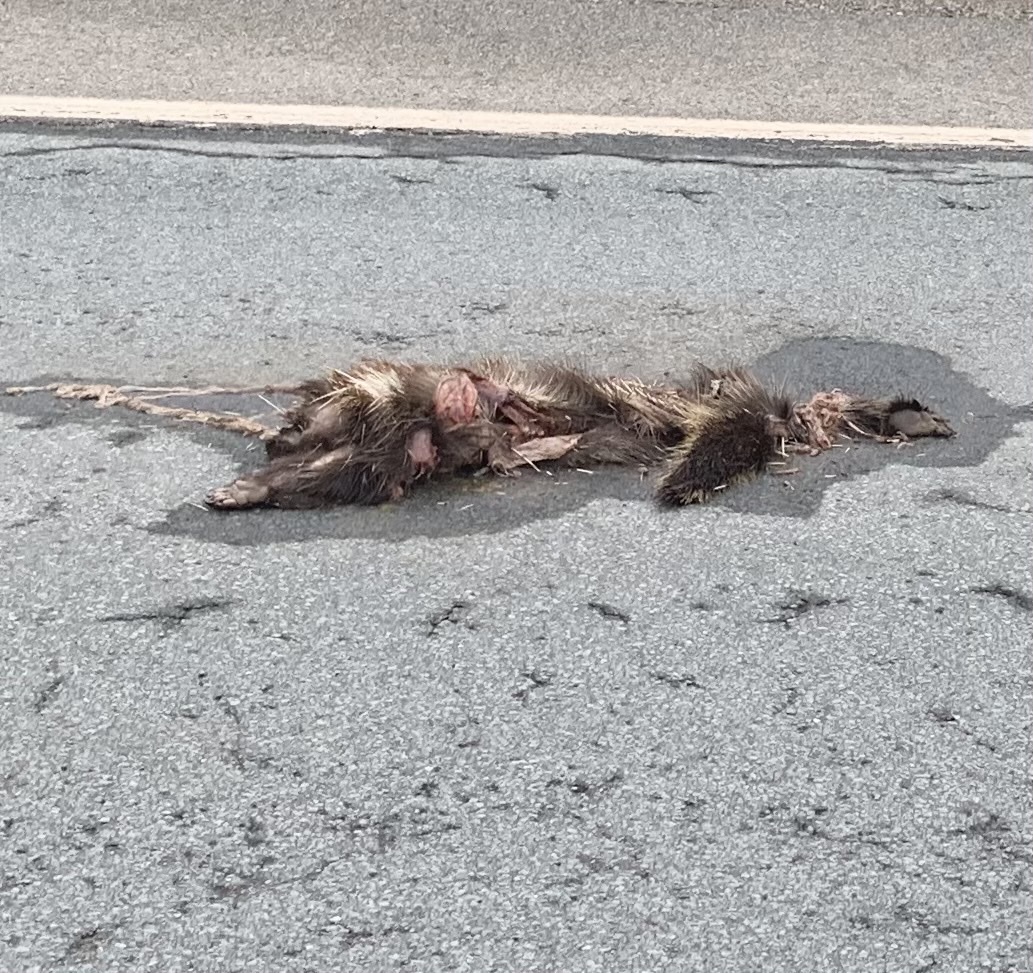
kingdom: Animalia
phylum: Chordata
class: Mammalia
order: Rodentia
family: Erethizontidae
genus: Erethizon
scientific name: Erethizon dorsatus
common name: North american porcupine
